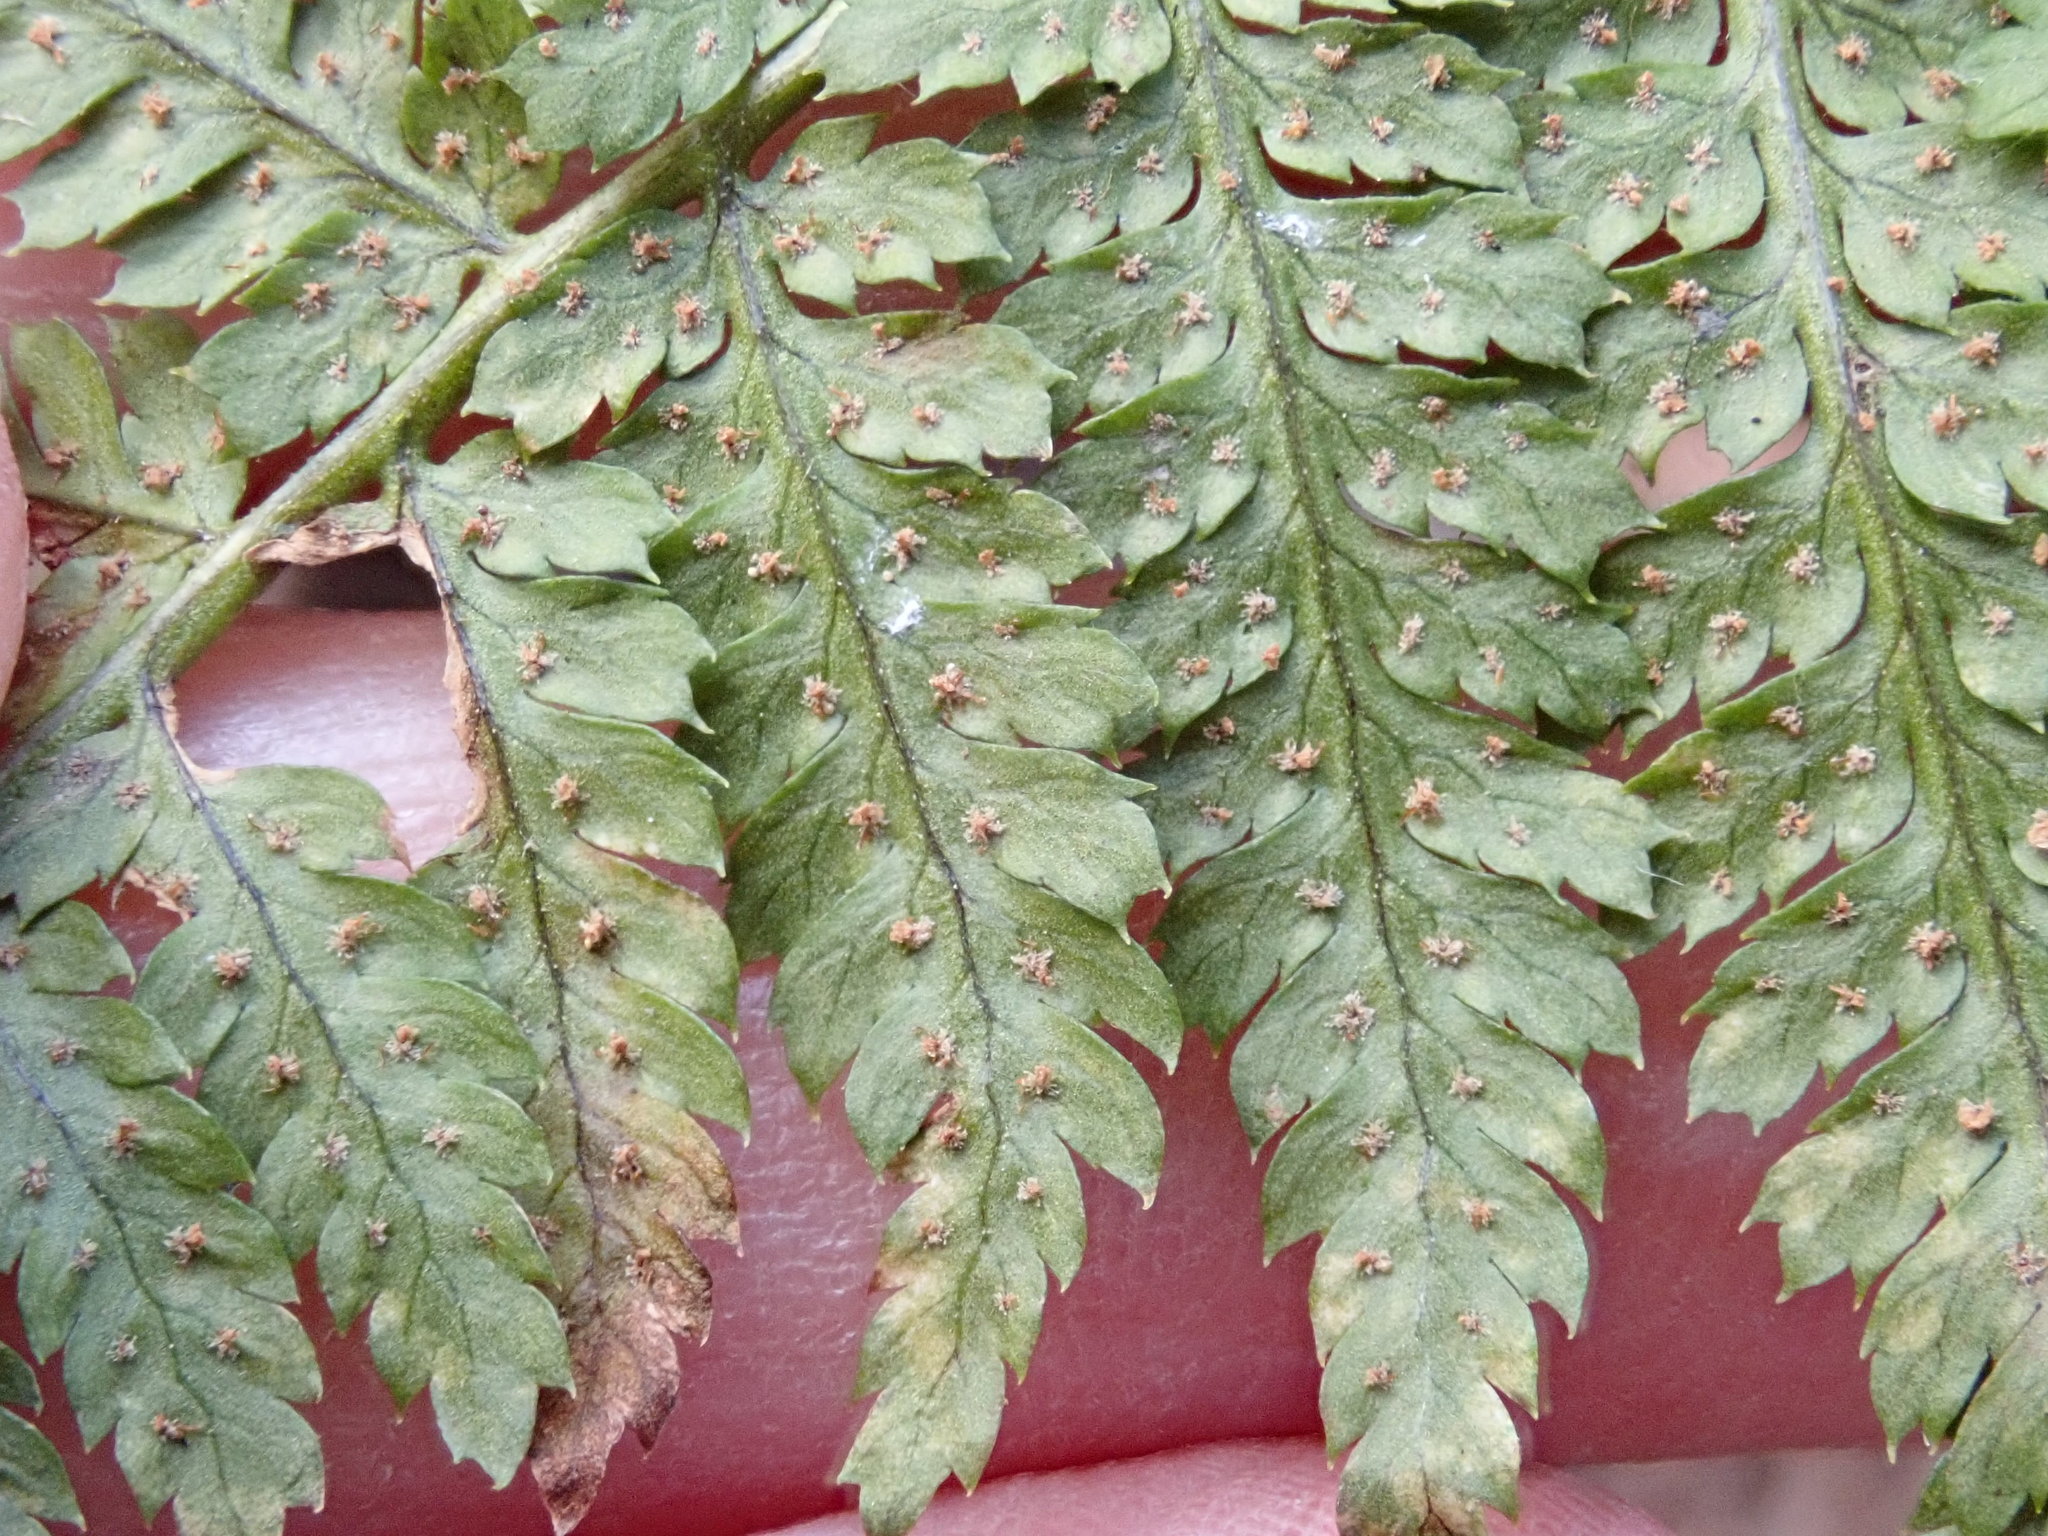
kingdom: Plantae
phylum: Tracheophyta
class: Polypodiopsida
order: Polypodiales
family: Dryopteridaceae
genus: Dryopteris
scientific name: Dryopteris intermedia
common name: Evergreen wood fern
